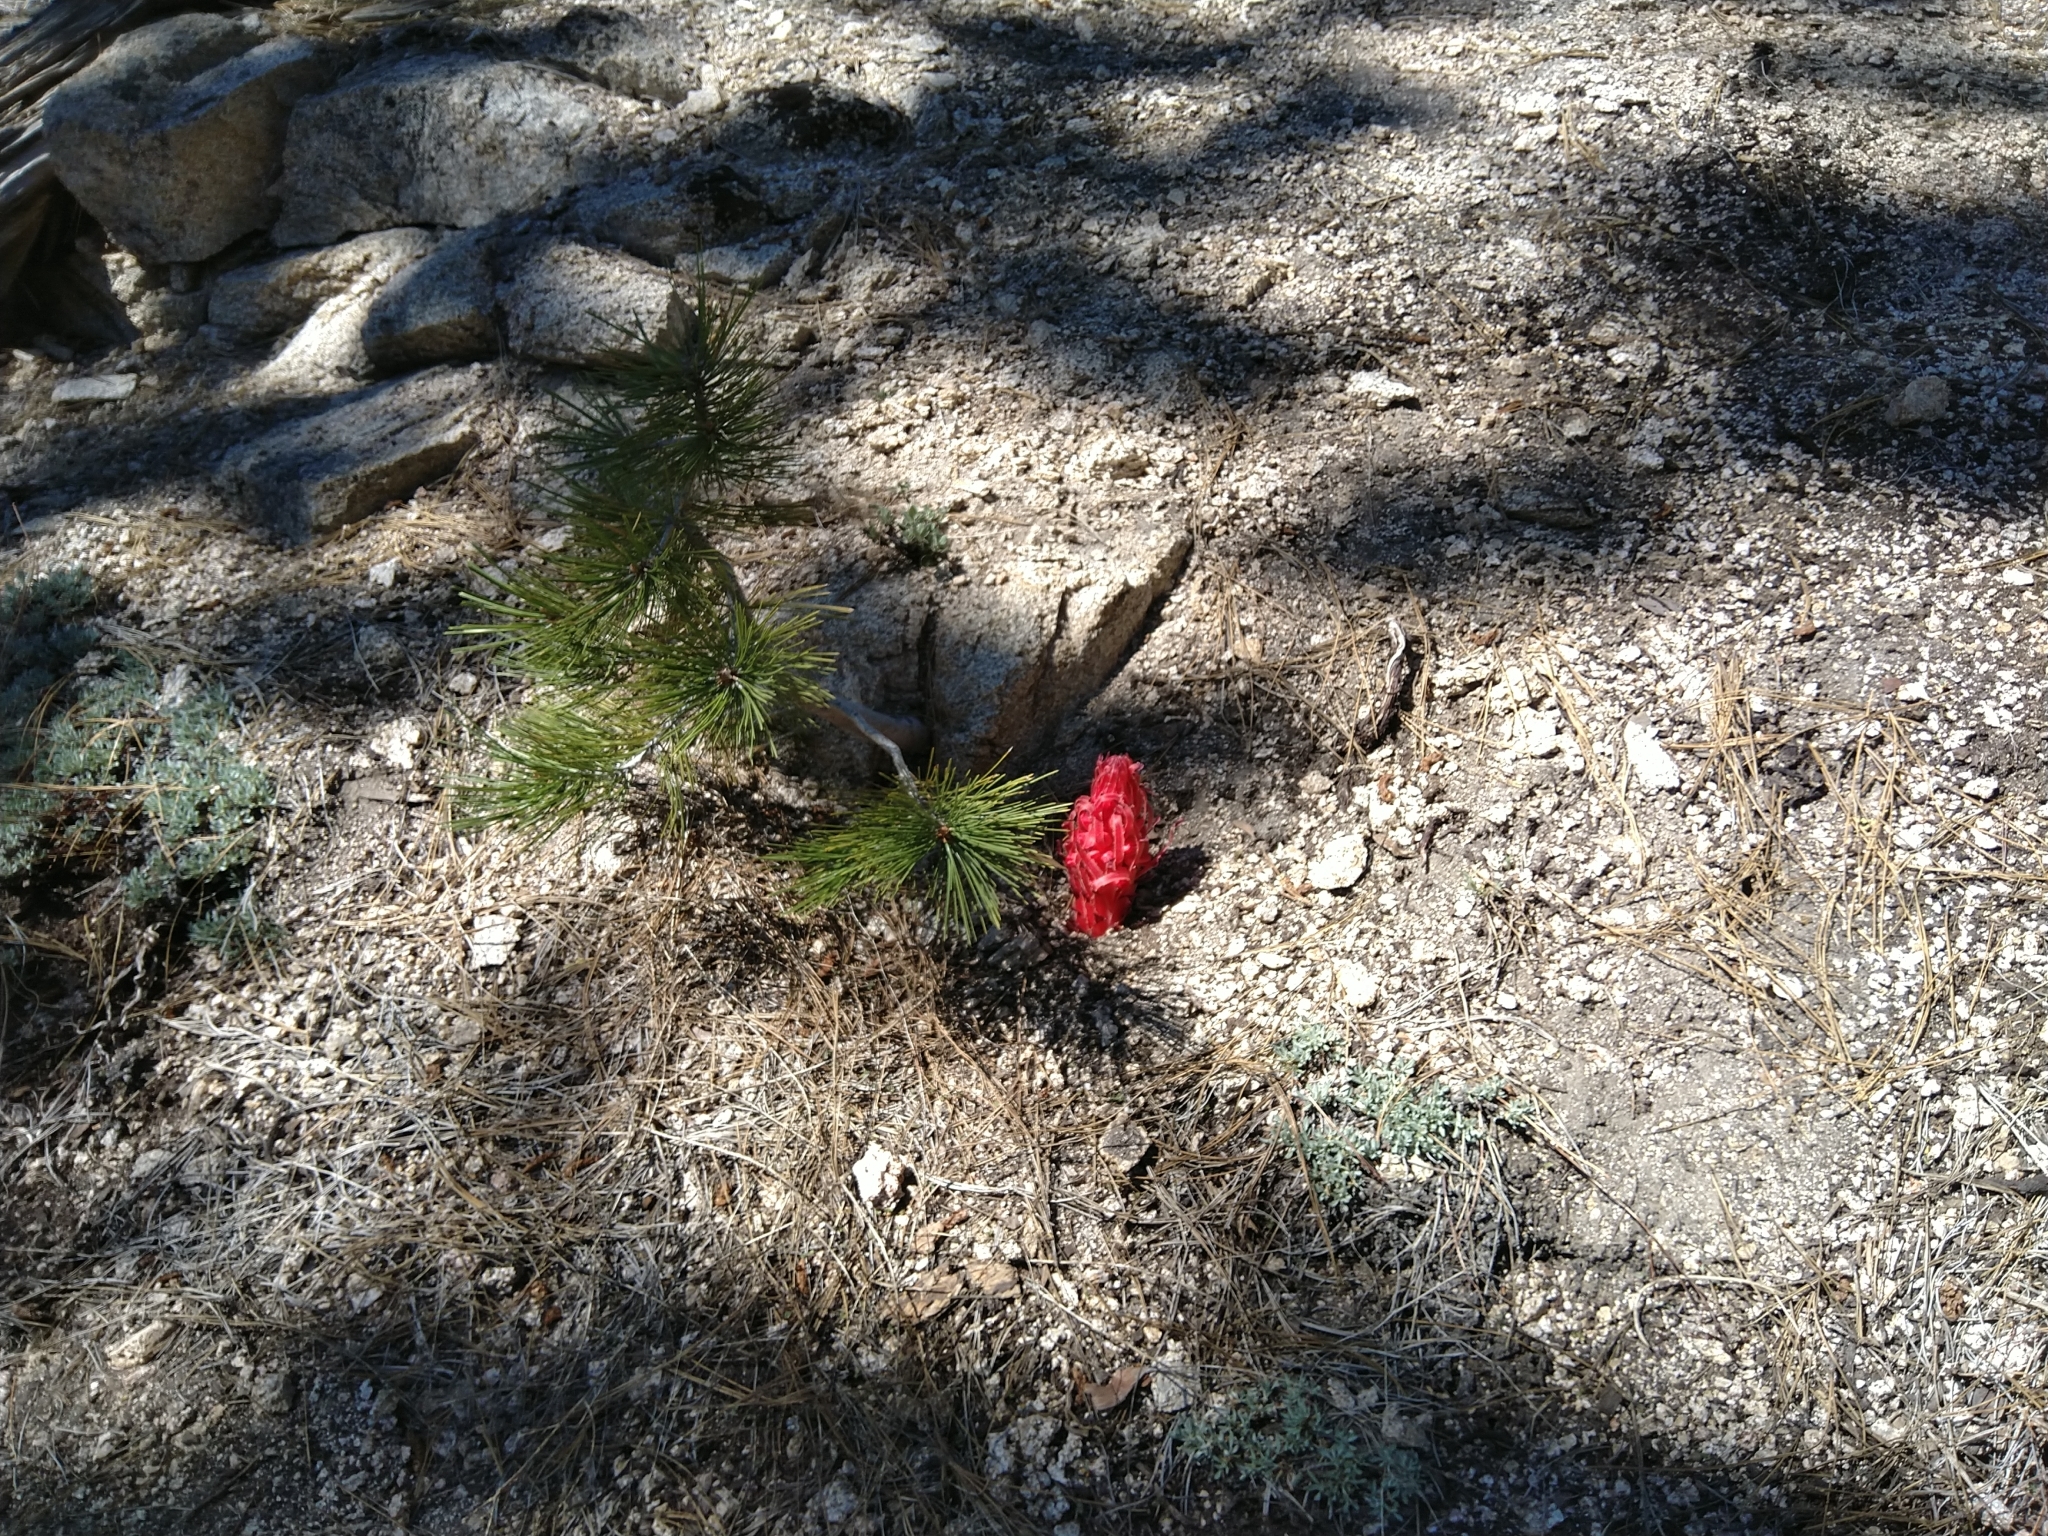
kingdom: Plantae
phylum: Tracheophyta
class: Magnoliopsida
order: Ericales
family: Ericaceae
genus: Sarcodes
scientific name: Sarcodes sanguinea
